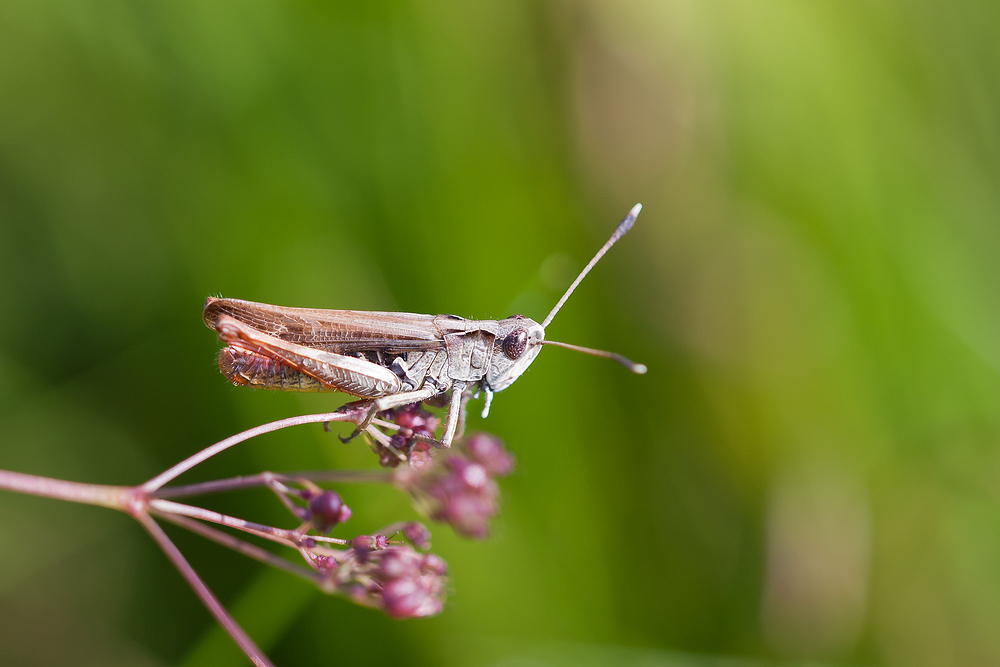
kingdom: Animalia
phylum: Arthropoda
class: Insecta
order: Orthoptera
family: Acrididae
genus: Gomphocerippus
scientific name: Gomphocerippus rufus
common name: Rufous grasshopper
